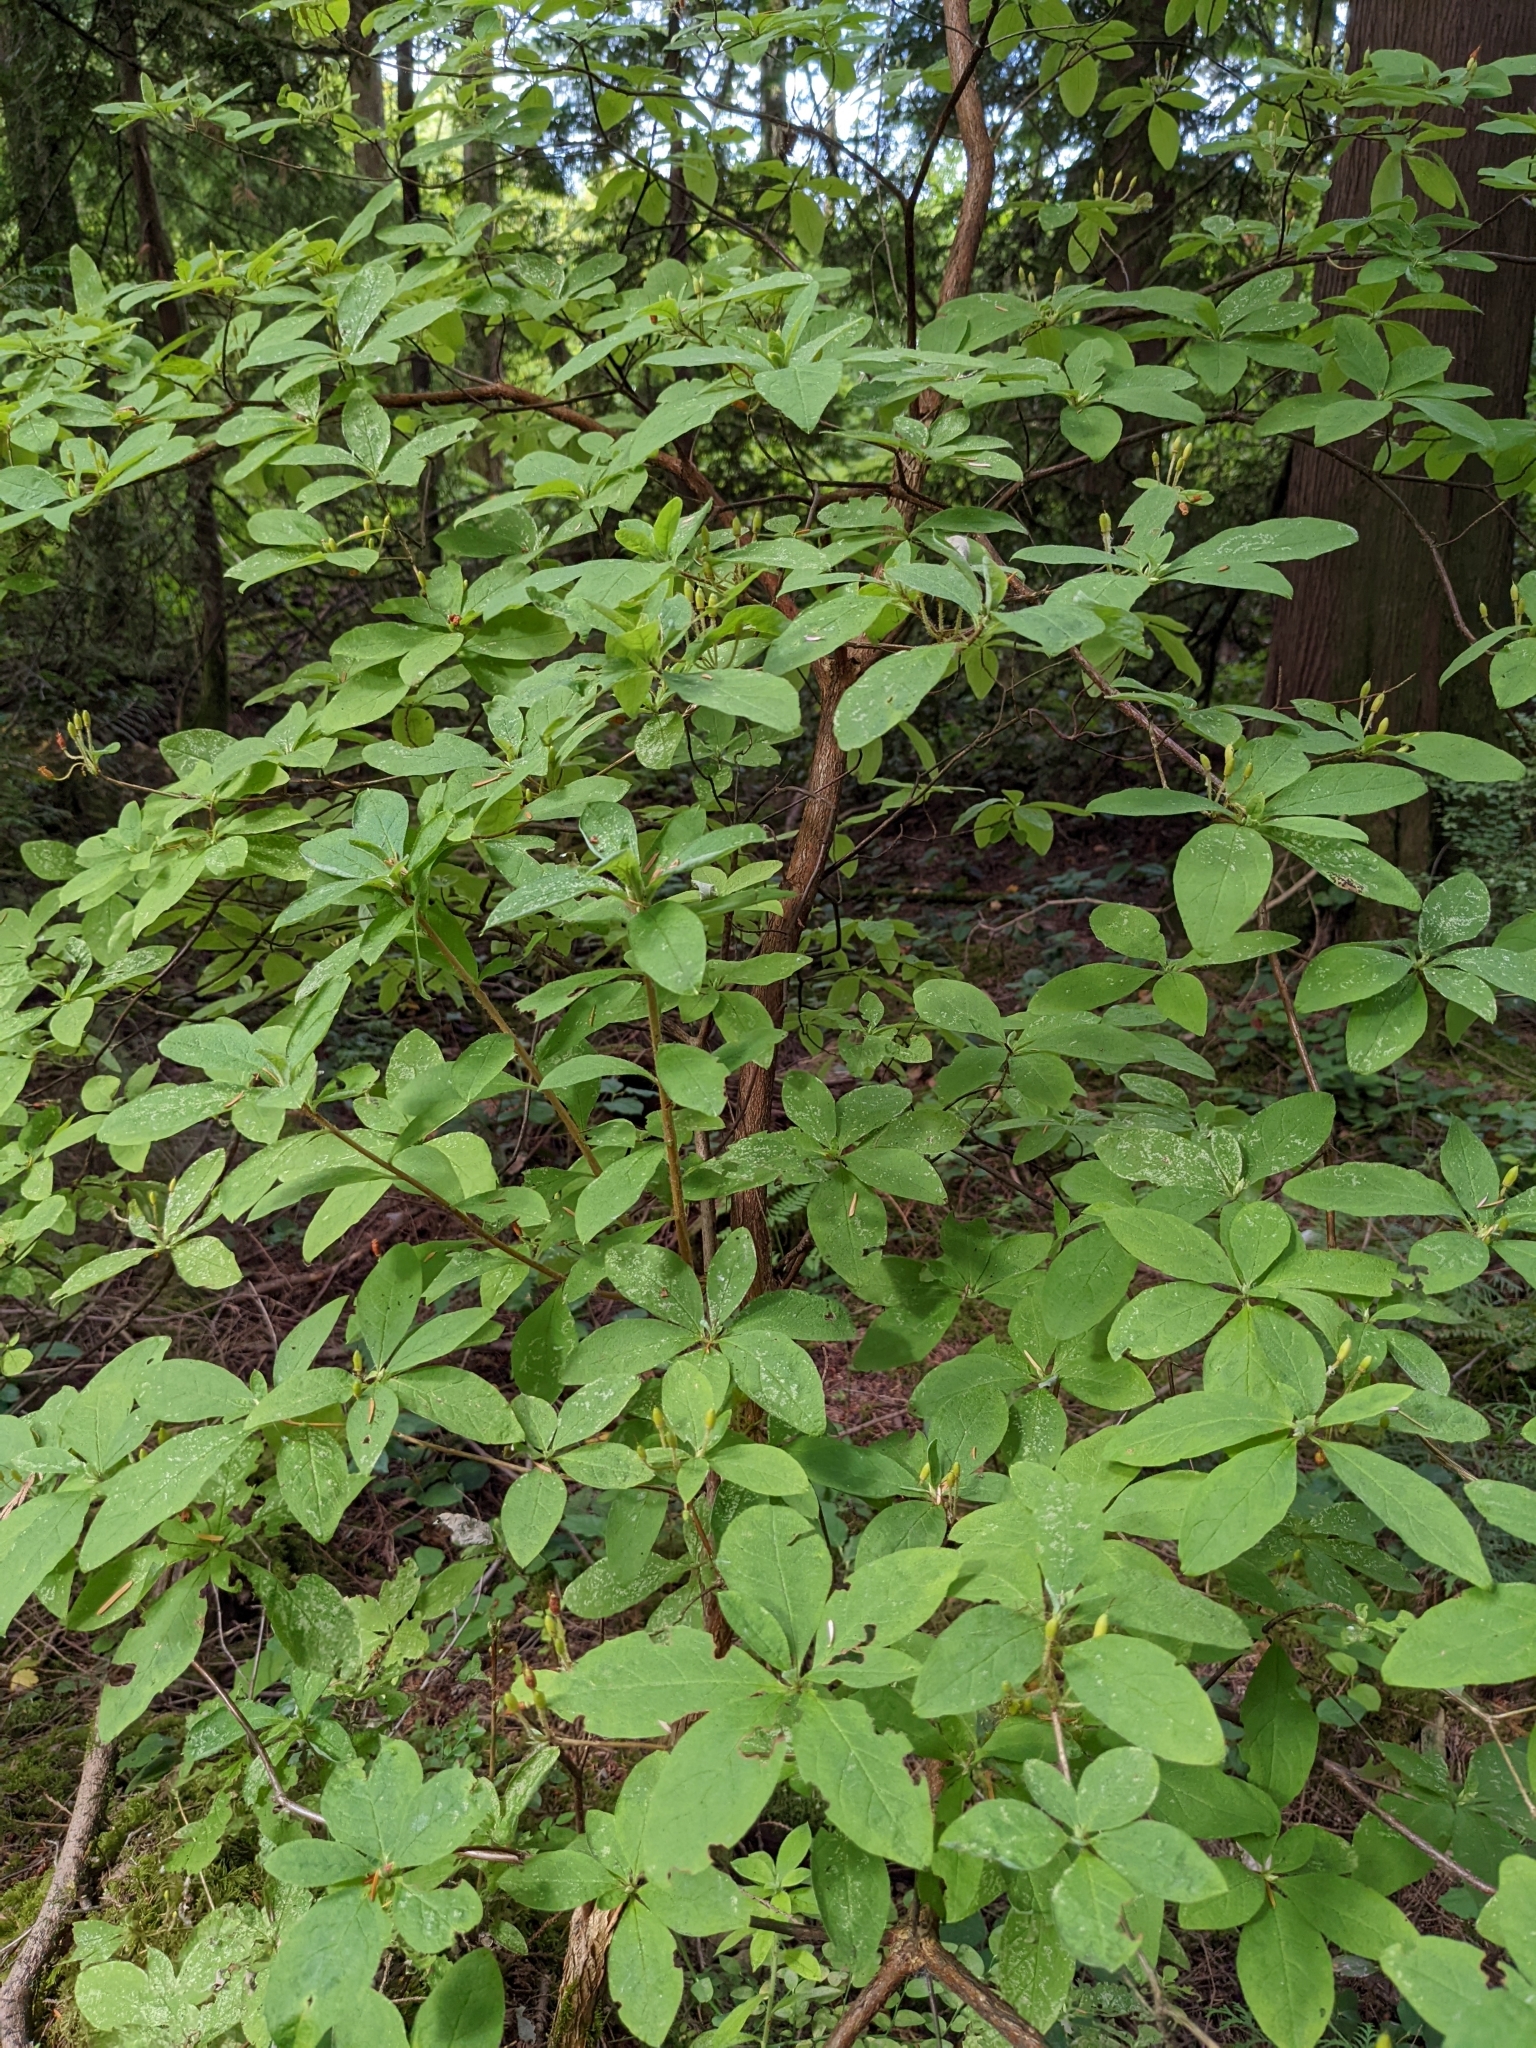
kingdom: Plantae
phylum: Tracheophyta
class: Magnoliopsida
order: Ericales
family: Ericaceae
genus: Rhododendron
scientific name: Rhododendron menziesii
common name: Pacific menziesia
